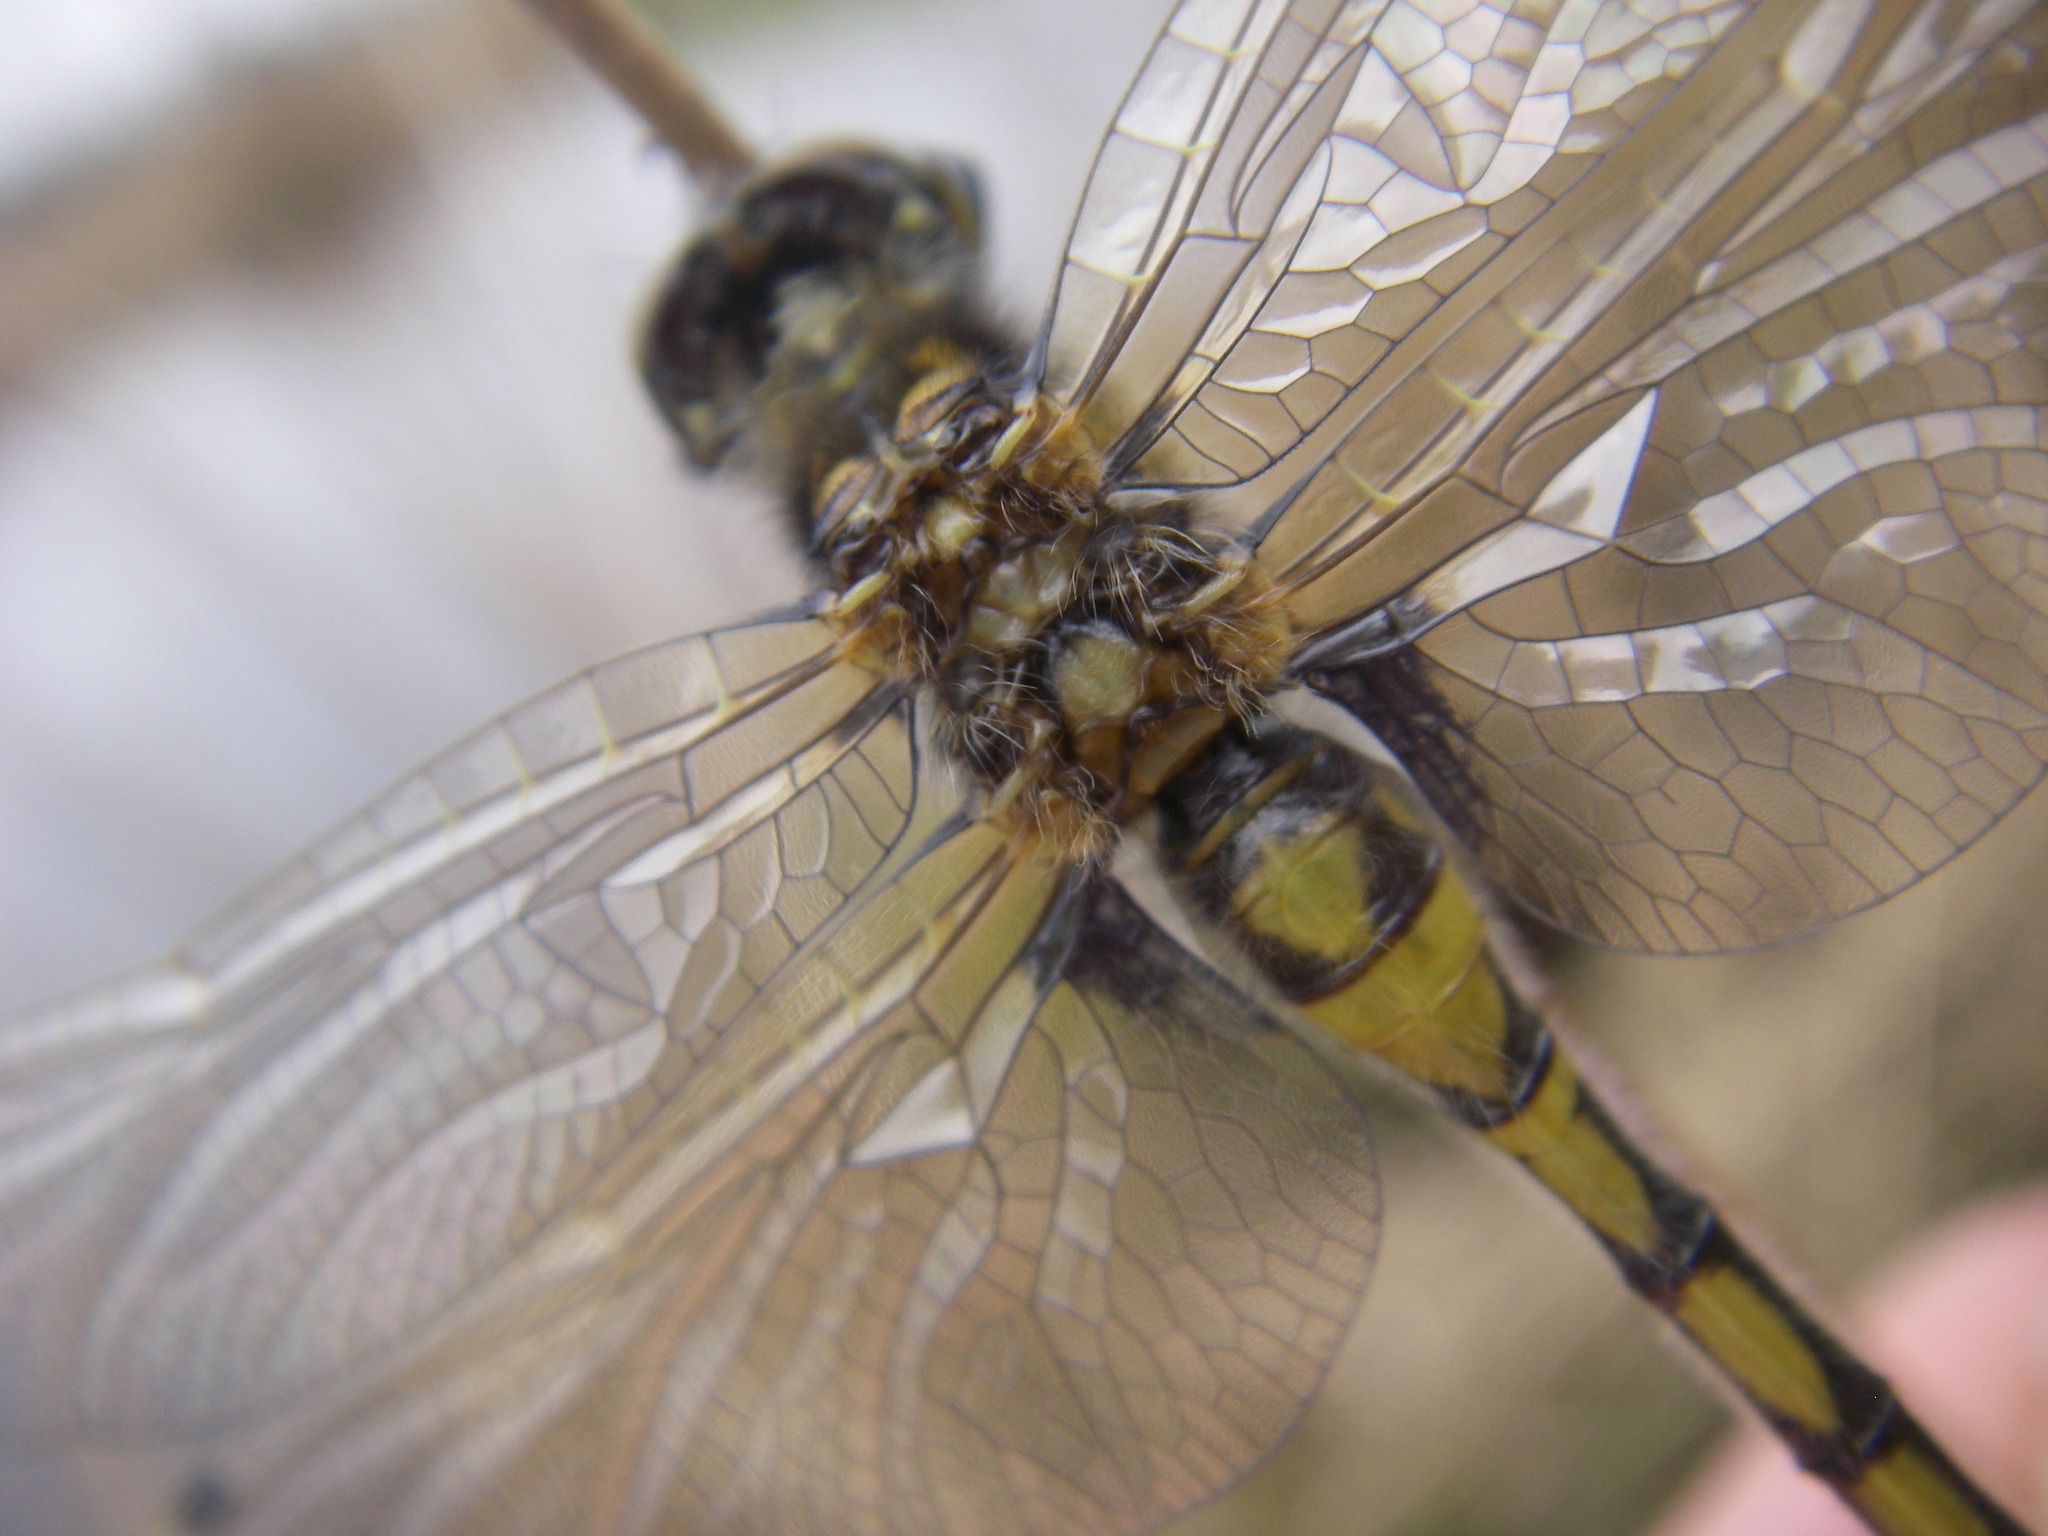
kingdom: Animalia
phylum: Arthropoda
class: Insecta
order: Odonata
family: Libellulidae
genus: Leucorrhinia
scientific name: Leucorrhinia rubicunda
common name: Ruby whiteface
